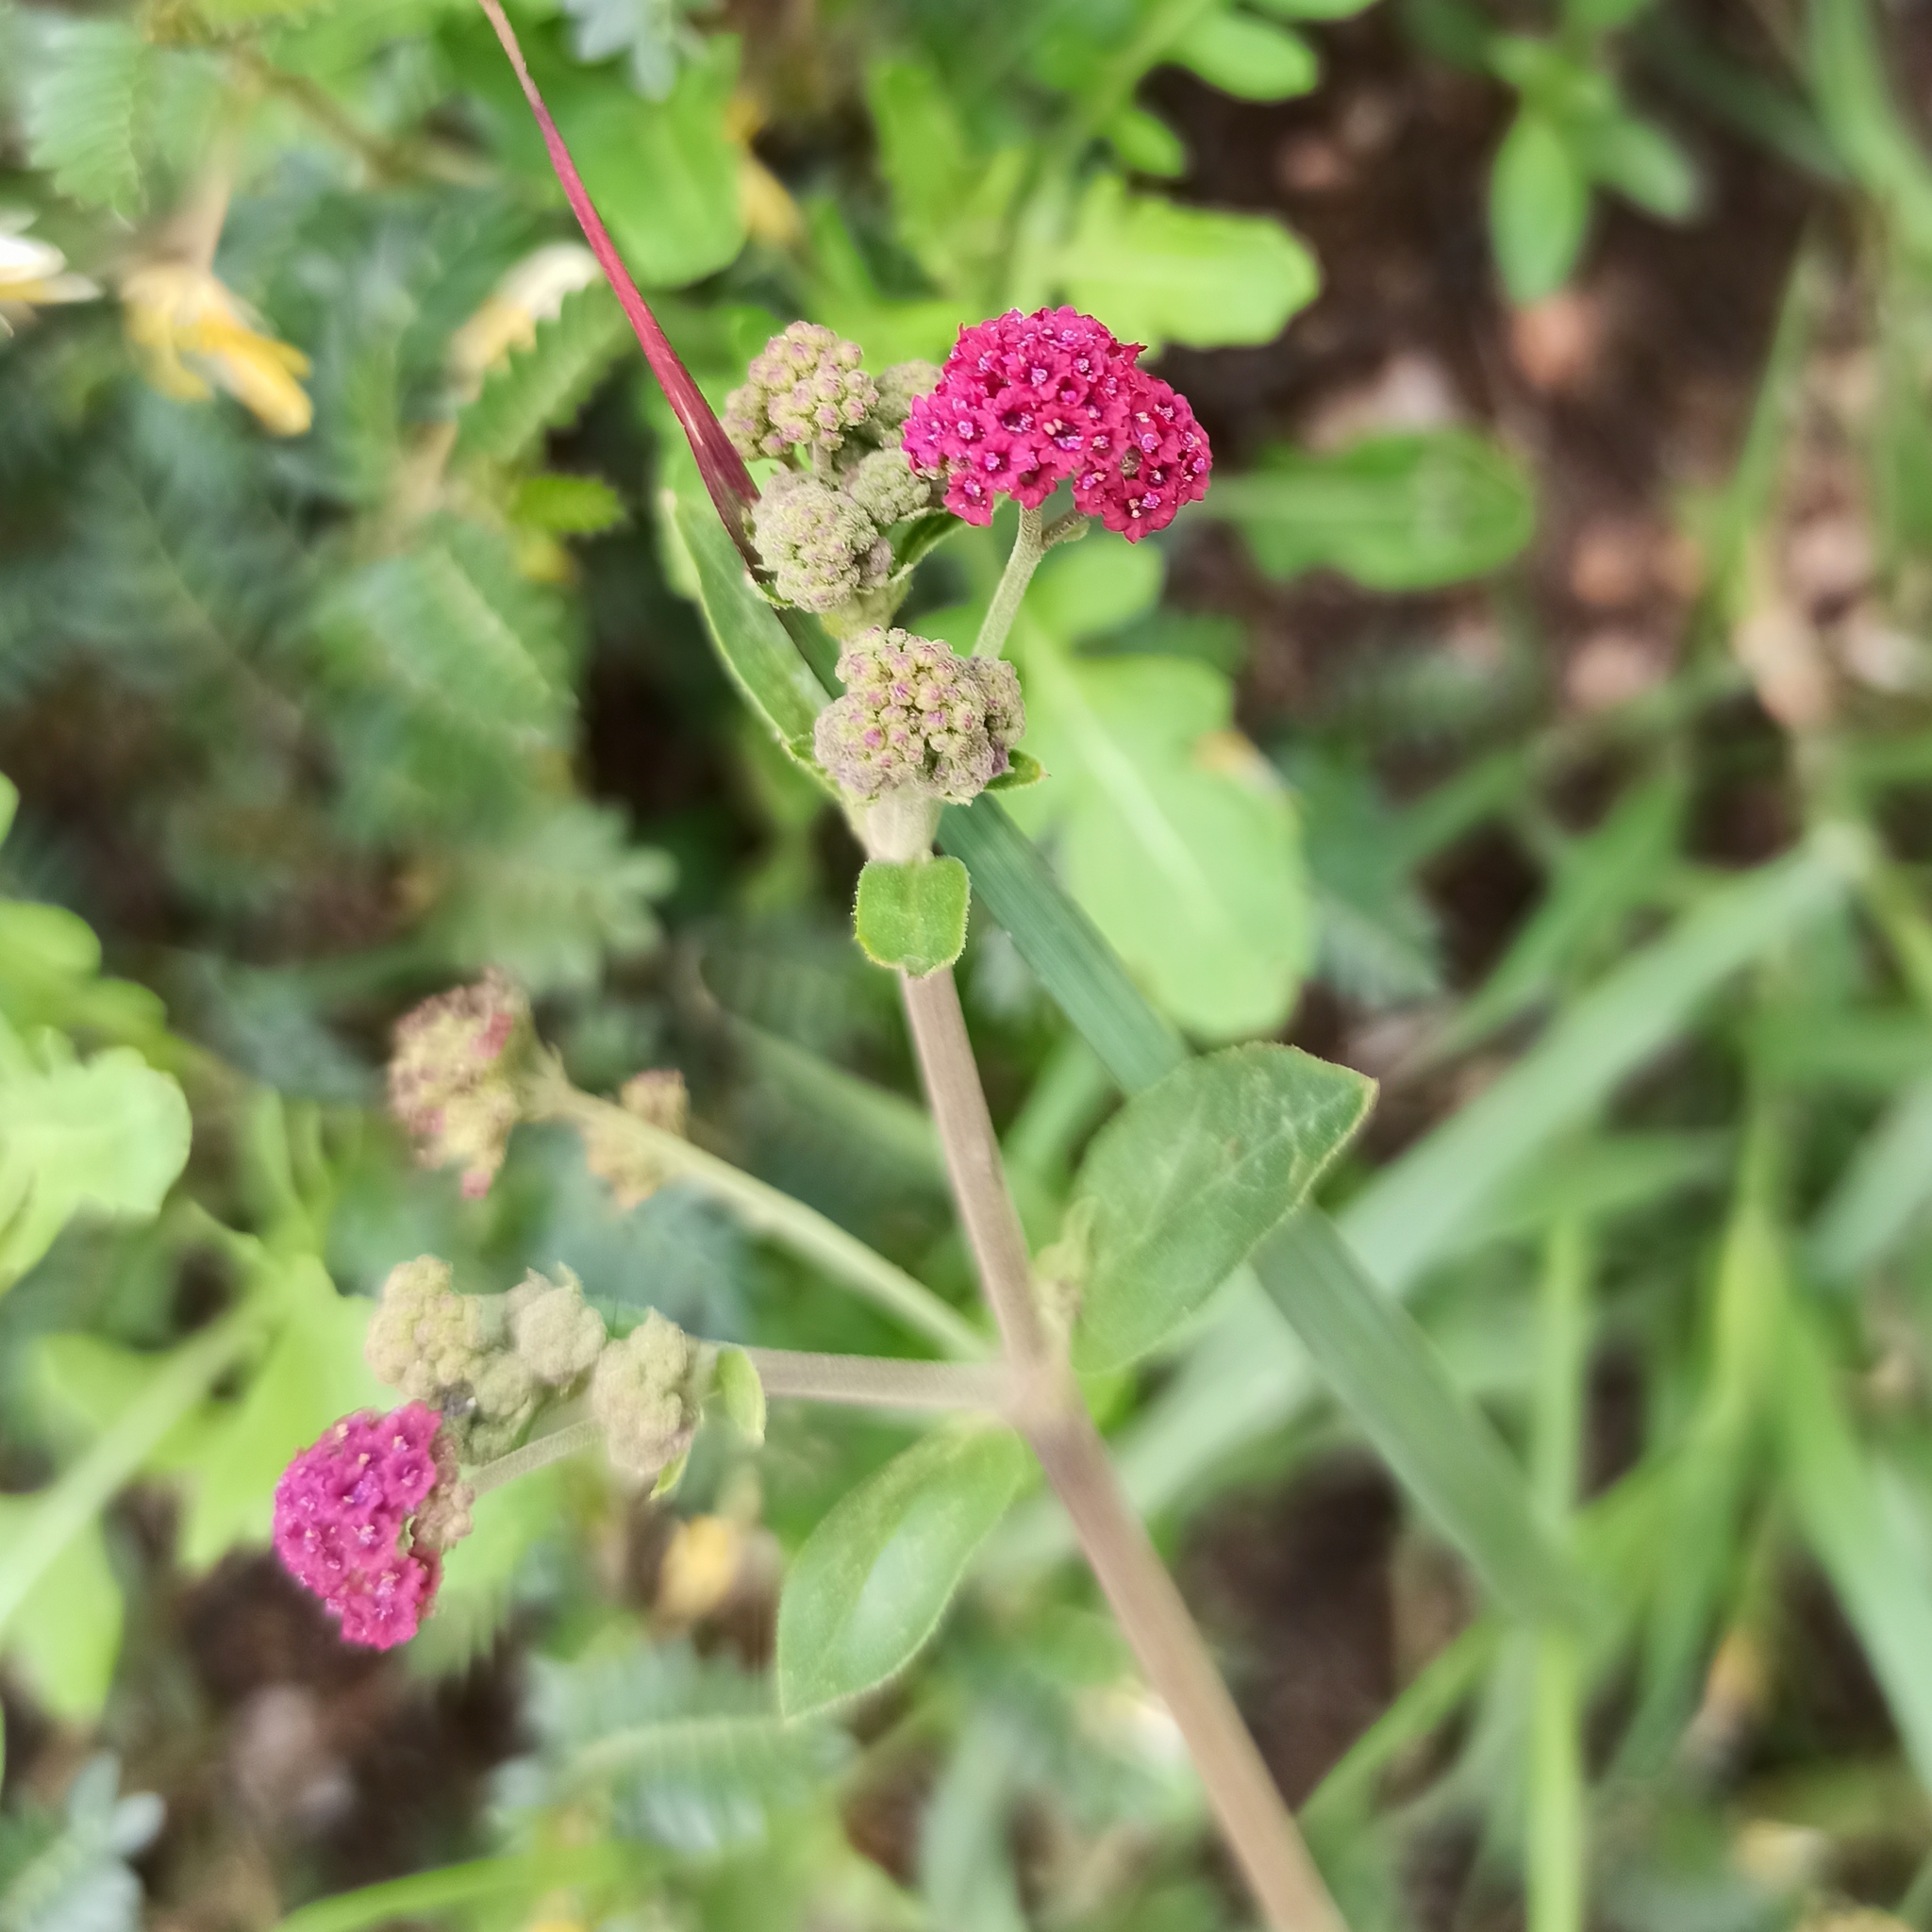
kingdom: Plantae
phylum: Tracheophyta
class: Magnoliopsida
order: Caryophyllales
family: Nyctaginaceae
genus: Boerhavia
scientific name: Boerhavia coccinea
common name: Scarlet spiderling
